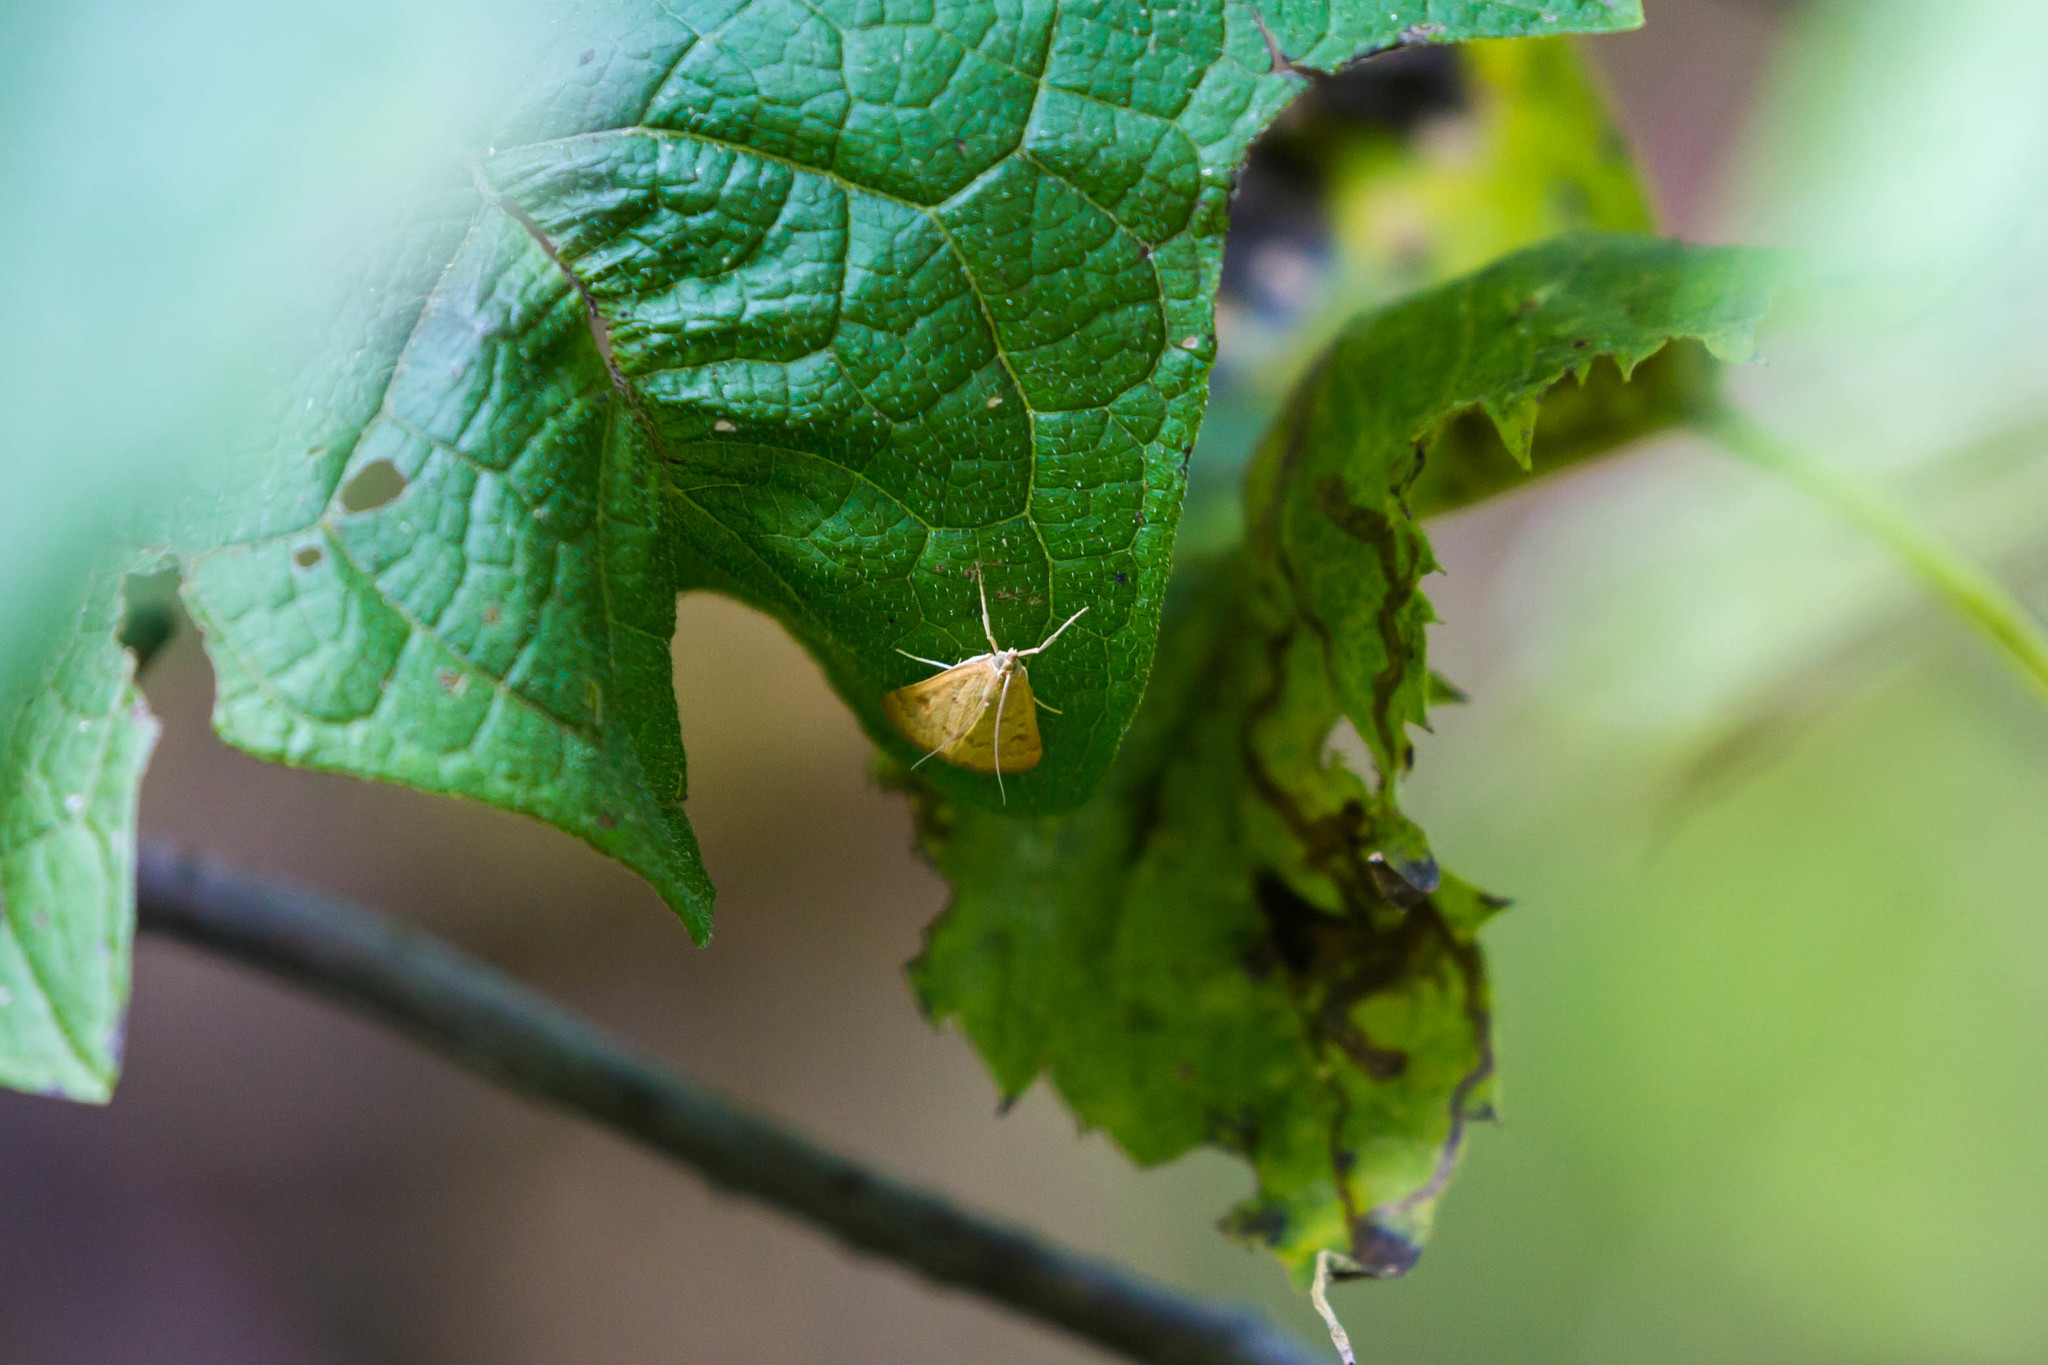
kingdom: Animalia
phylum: Arthropoda
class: Insecta
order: Lepidoptera
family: Crambidae
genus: Achyra
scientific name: Achyra rantalis
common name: Garden webworm
